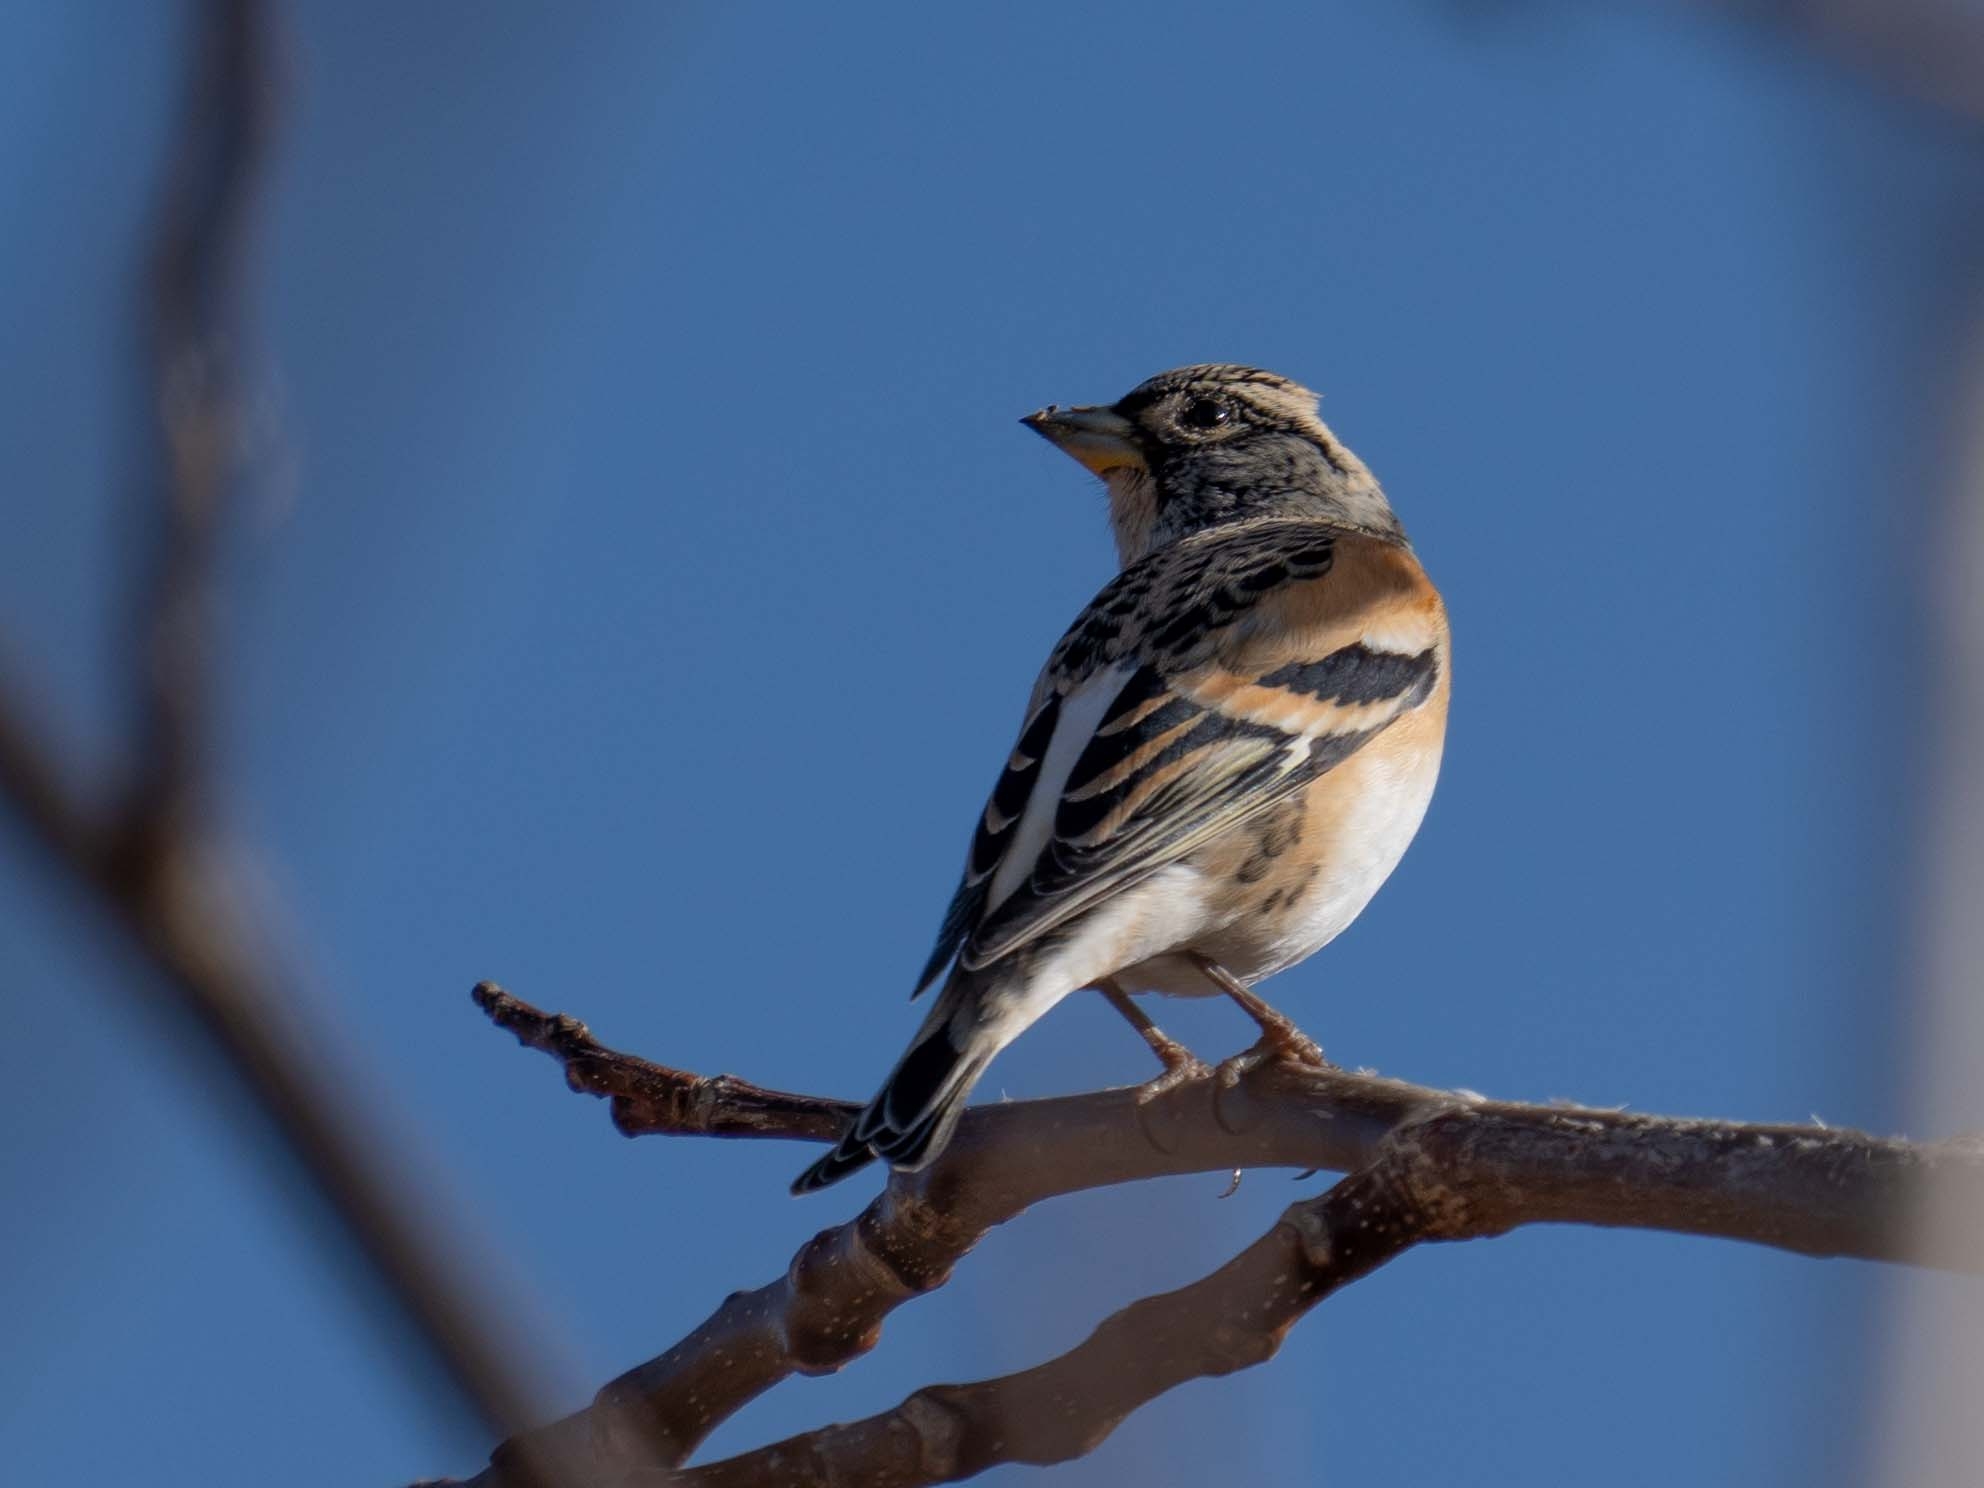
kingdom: Animalia
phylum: Chordata
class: Aves
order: Passeriformes
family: Fringillidae
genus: Fringilla
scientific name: Fringilla montifringilla
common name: Brambling
